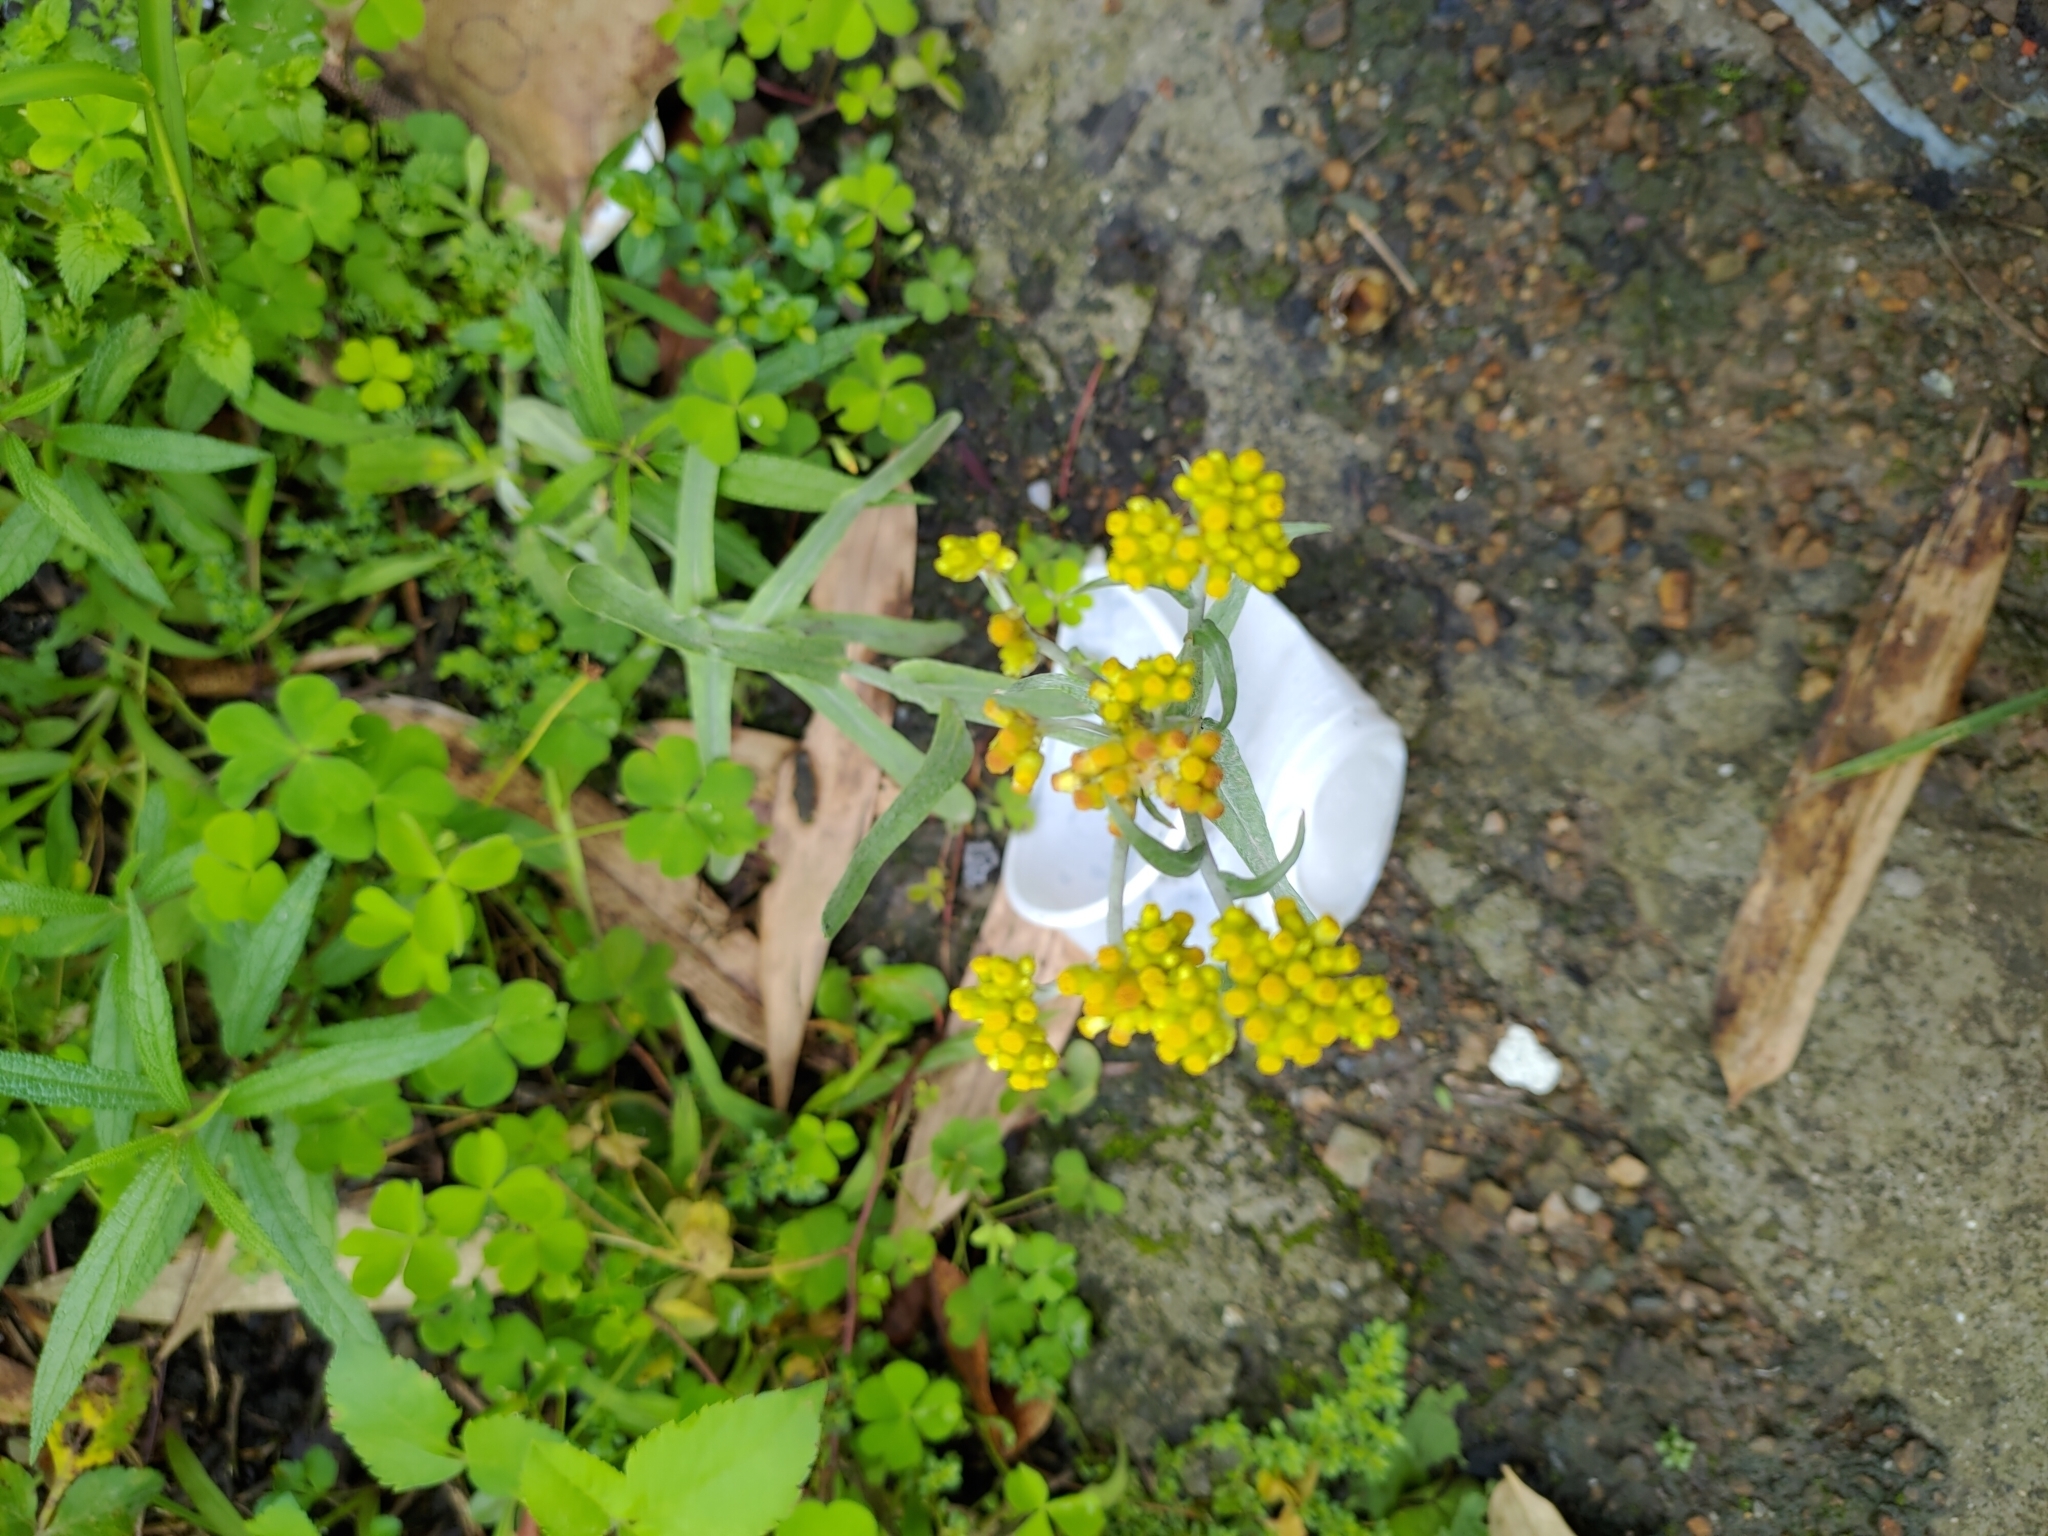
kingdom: Plantae
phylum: Tracheophyta
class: Magnoliopsida
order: Asterales
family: Asteraceae
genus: Pseudognaphalium
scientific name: Pseudognaphalium affine
